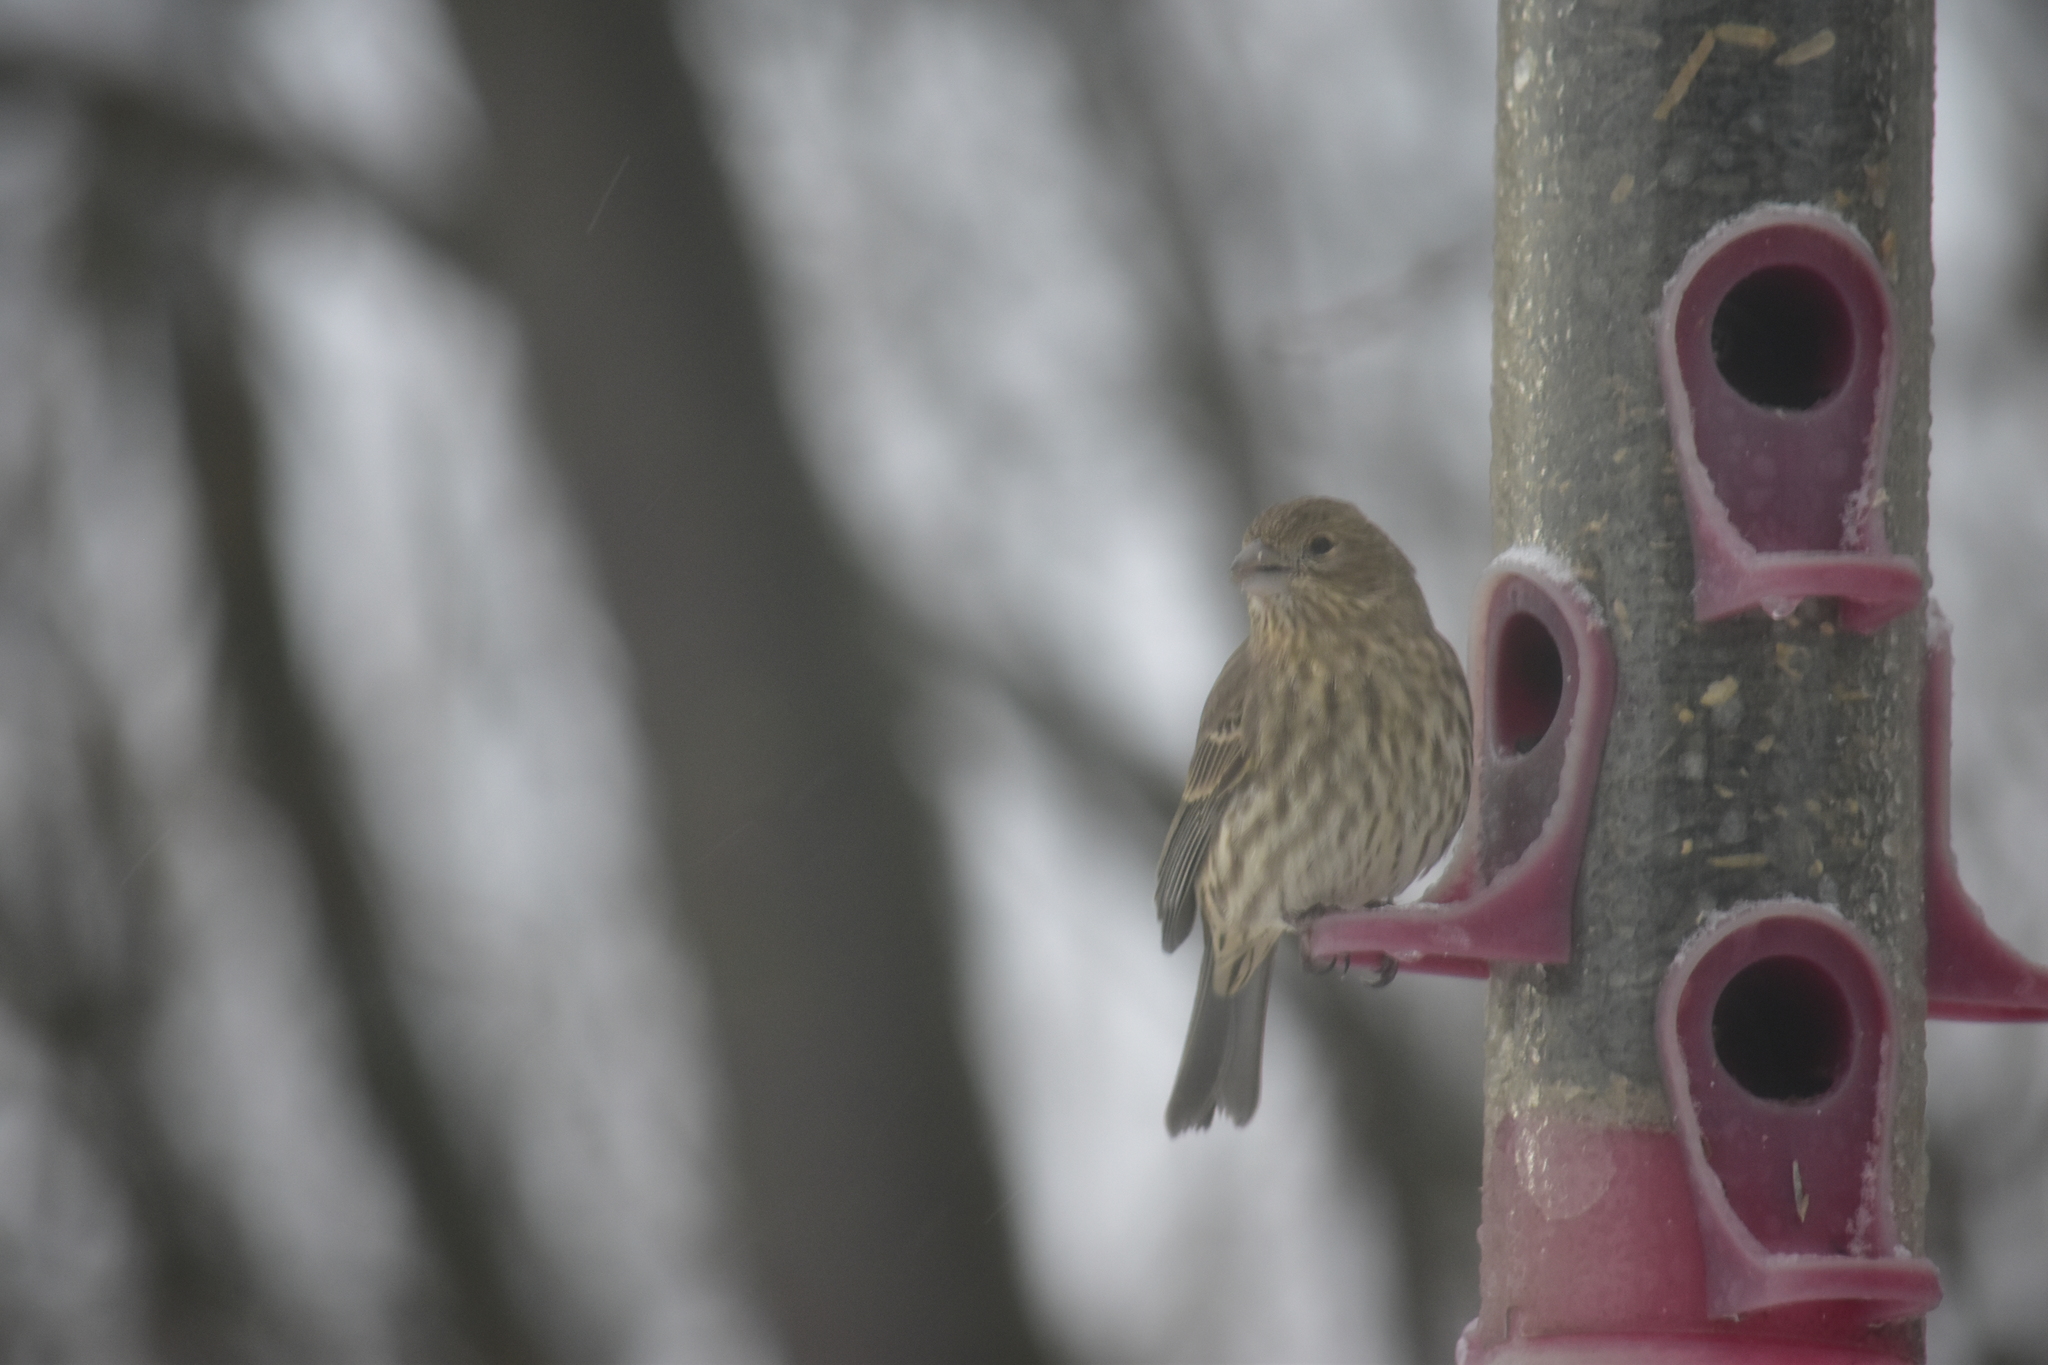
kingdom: Animalia
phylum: Chordata
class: Aves
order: Passeriformes
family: Fringillidae
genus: Haemorhous
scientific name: Haemorhous mexicanus
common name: House finch
